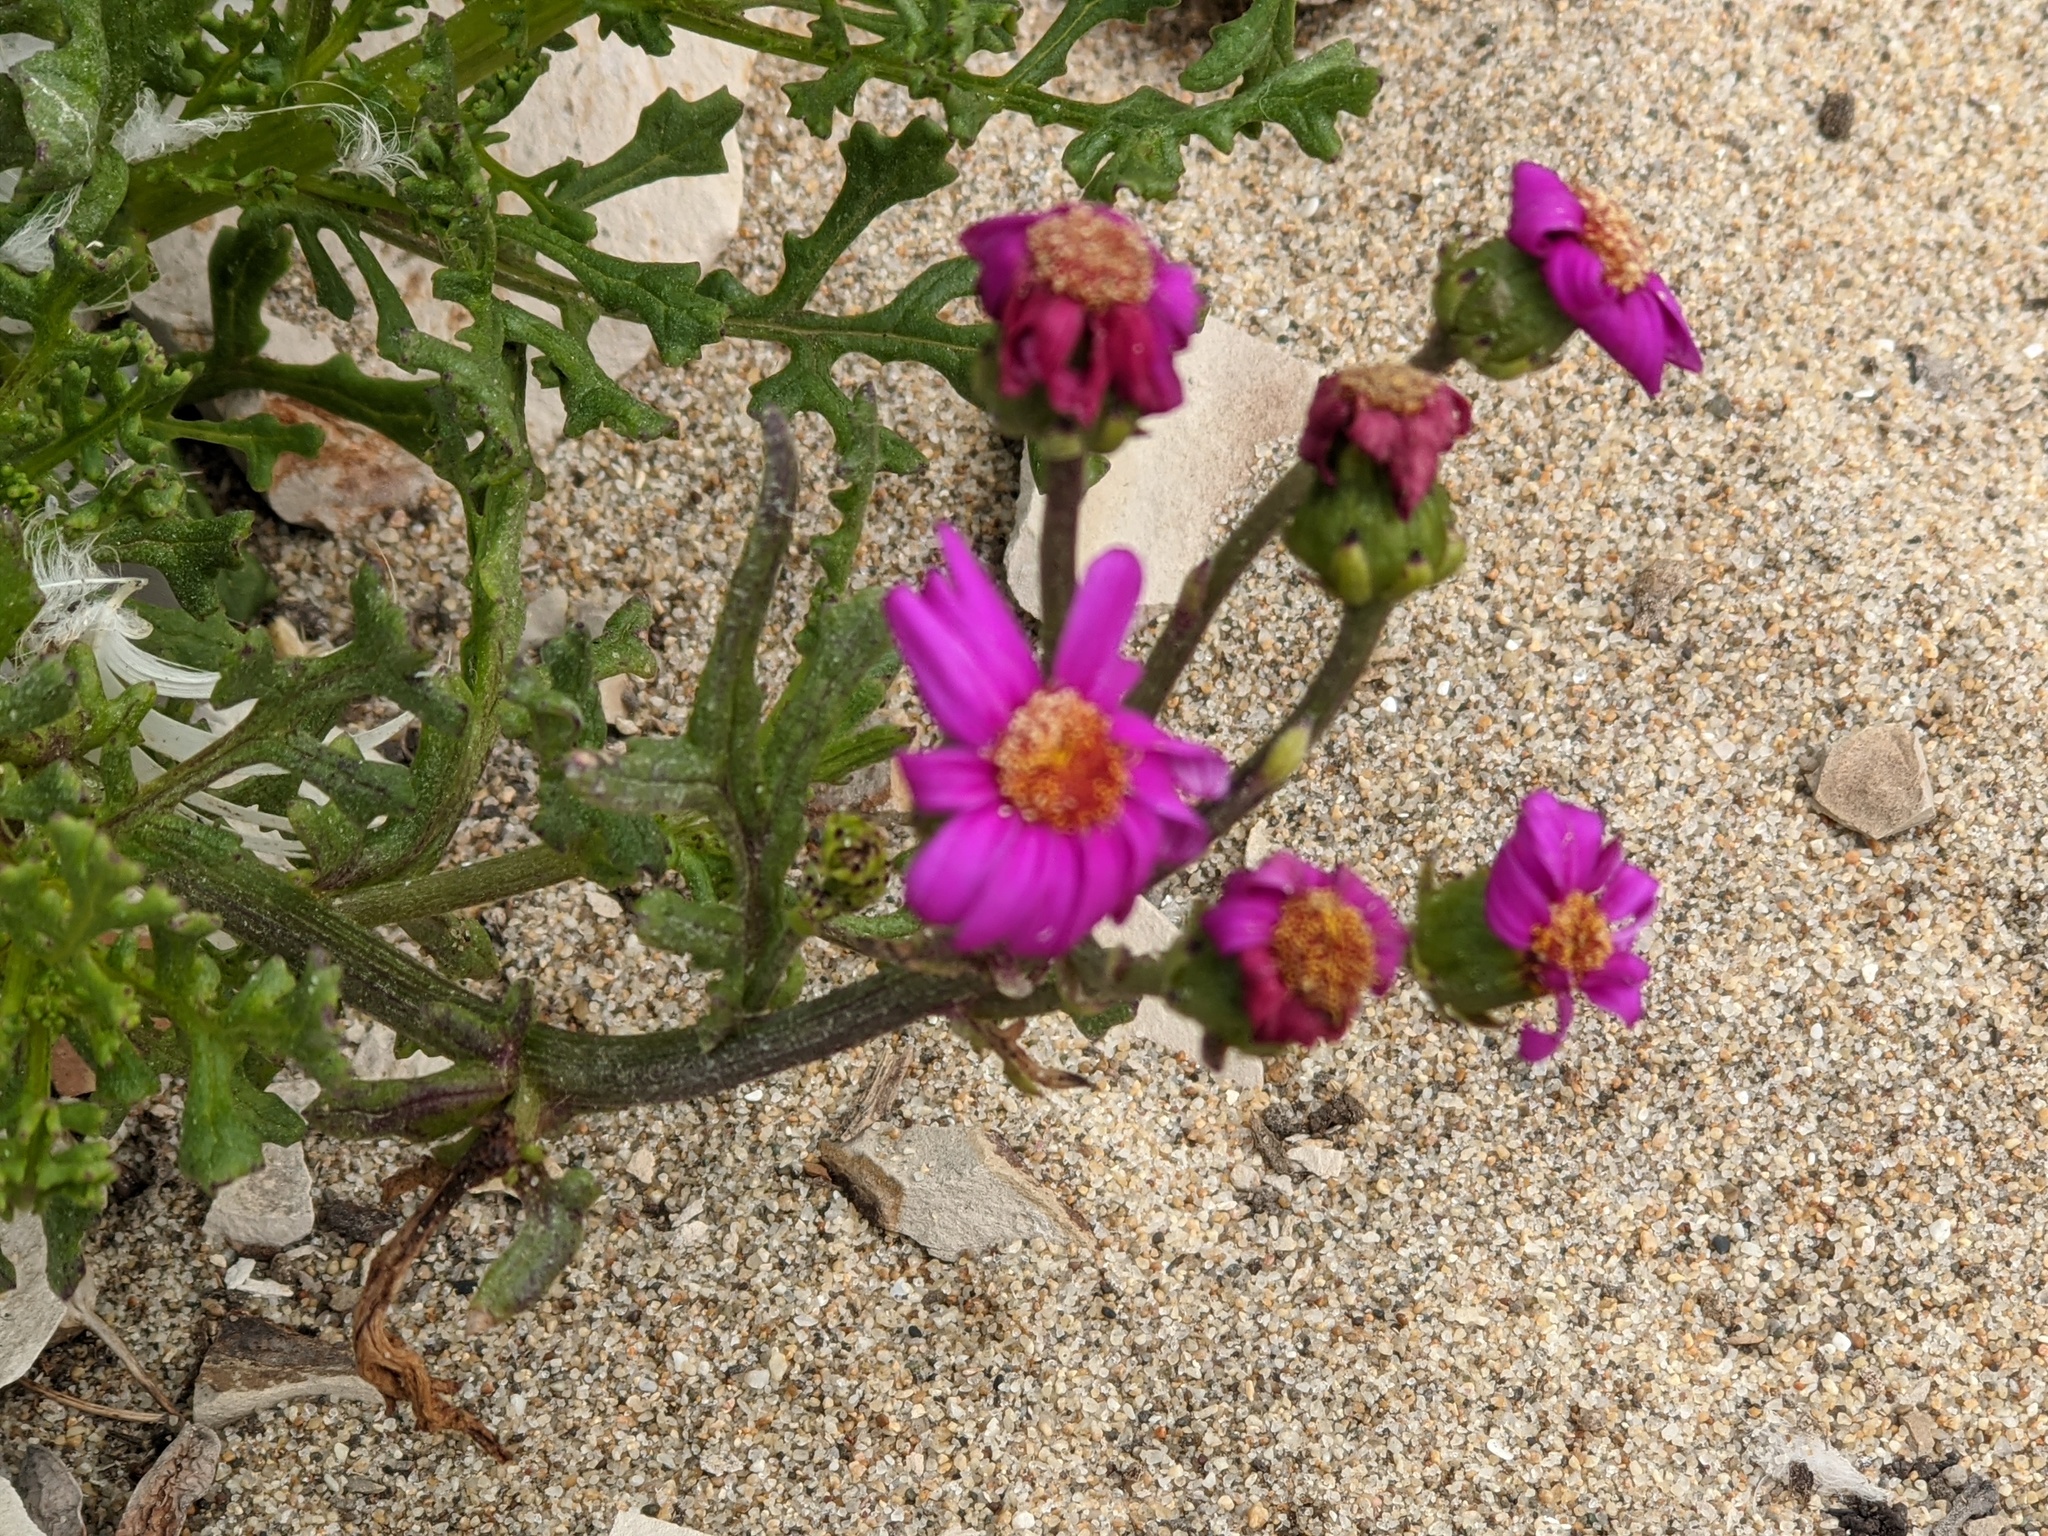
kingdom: Plantae
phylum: Tracheophyta
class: Magnoliopsida
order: Asterales
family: Asteraceae
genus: Senecio
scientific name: Senecio elegans
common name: Purple groundsel
